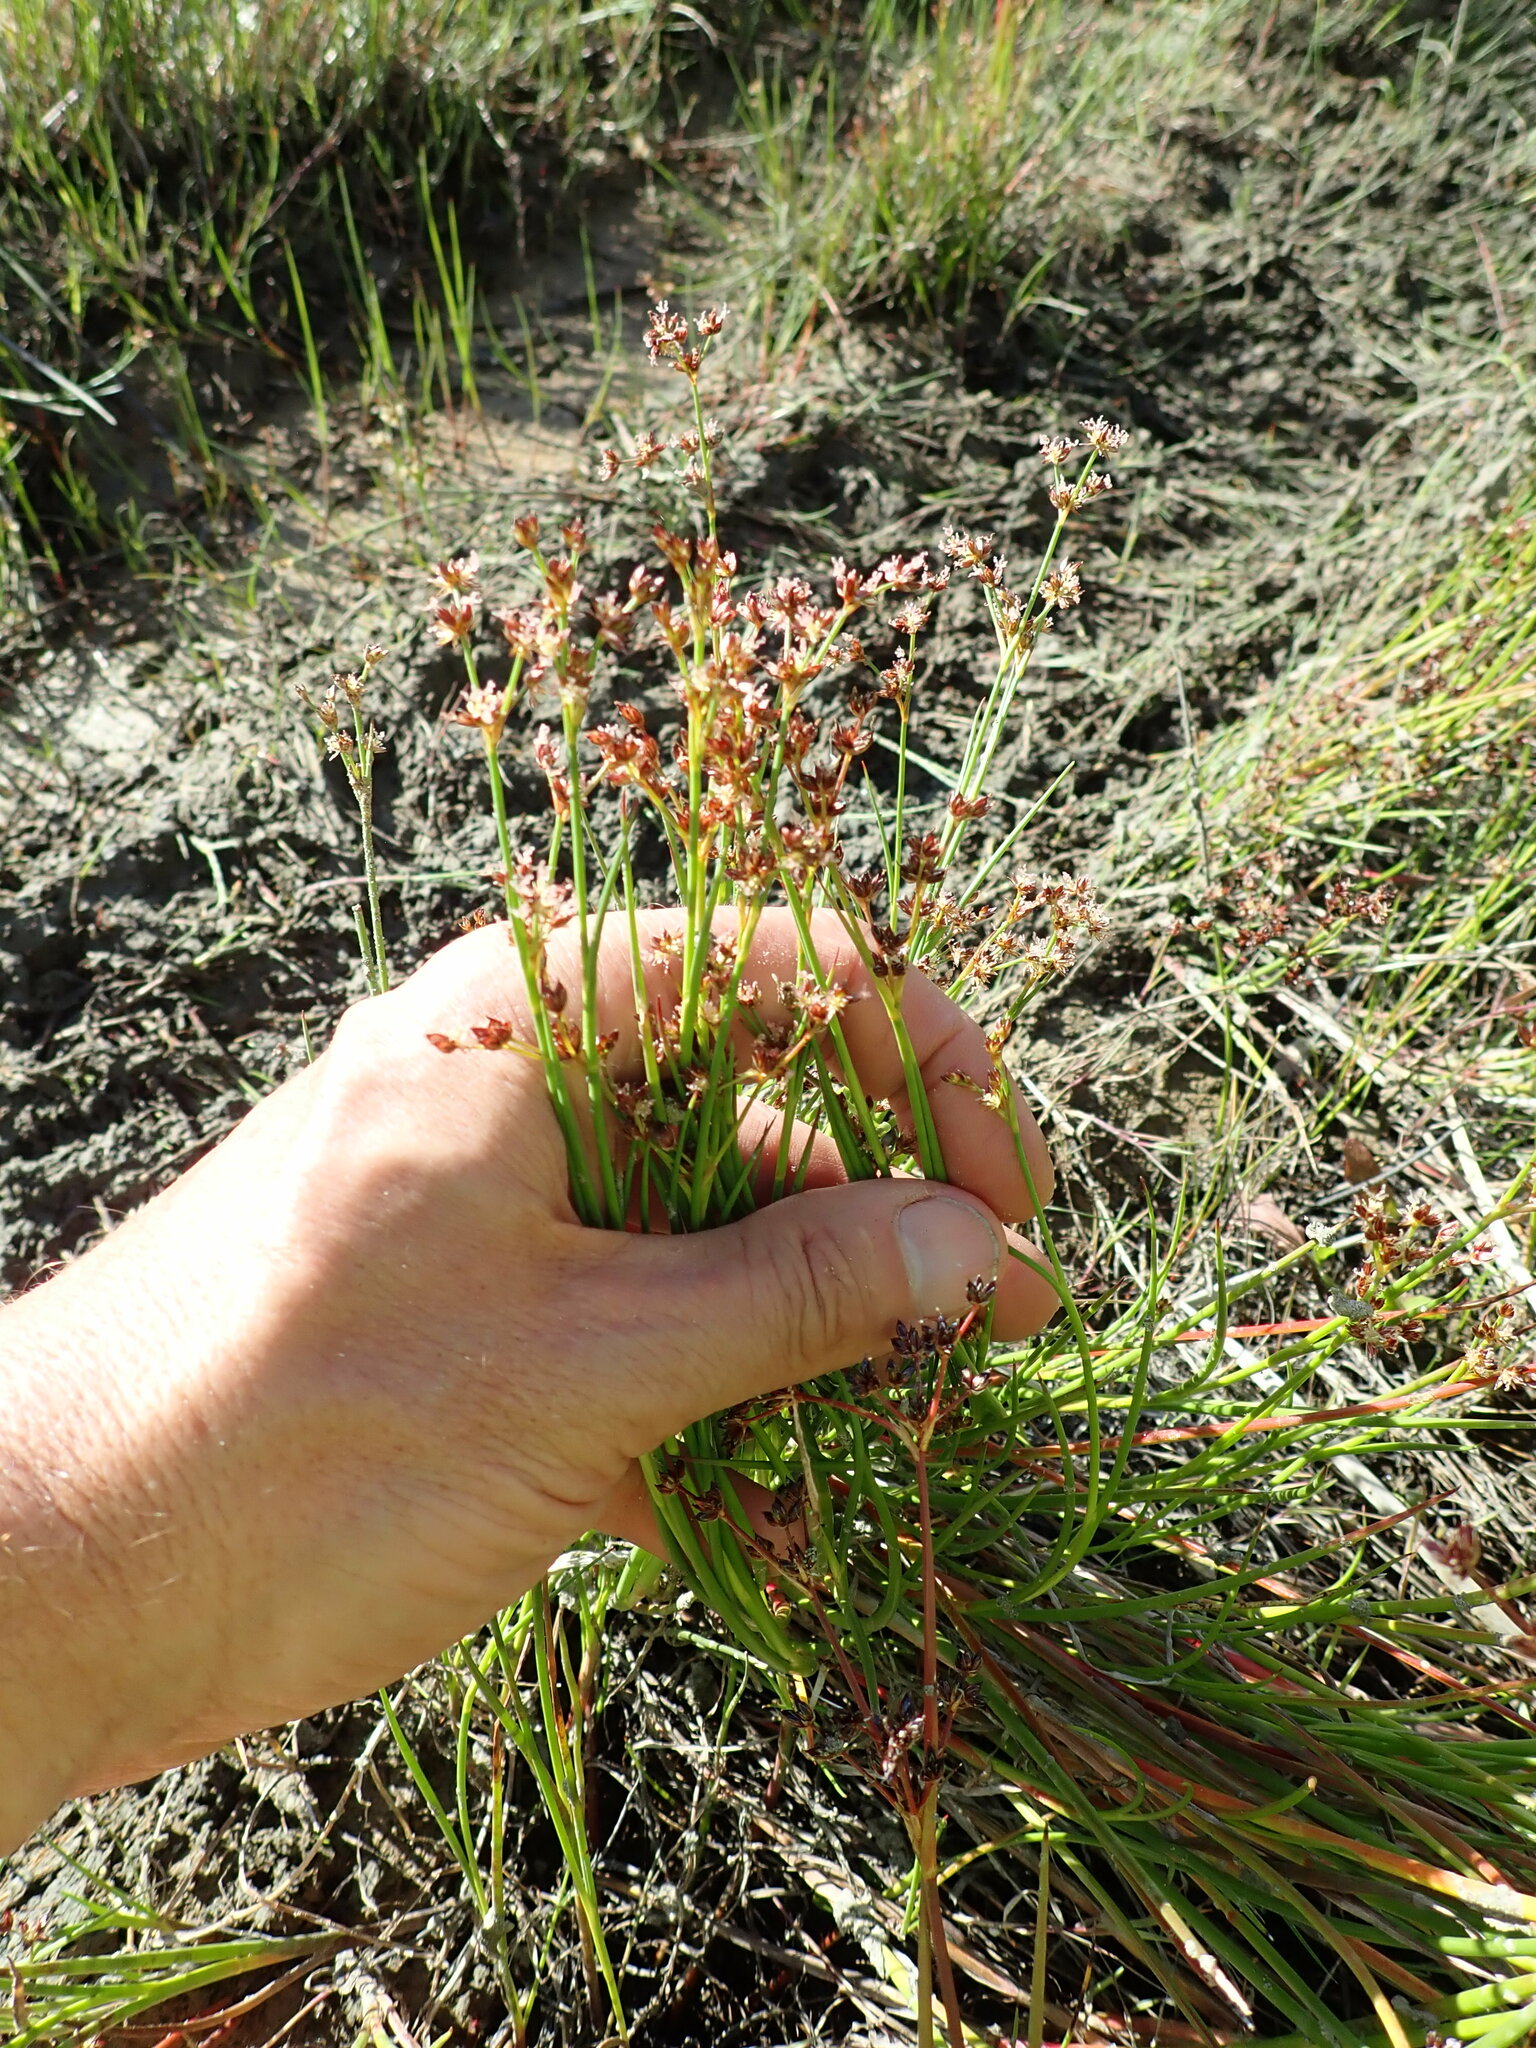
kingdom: Plantae
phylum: Tracheophyta
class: Liliopsida
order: Poales
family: Juncaceae
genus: Juncus
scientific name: Juncus articulatus
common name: Jointed rush
